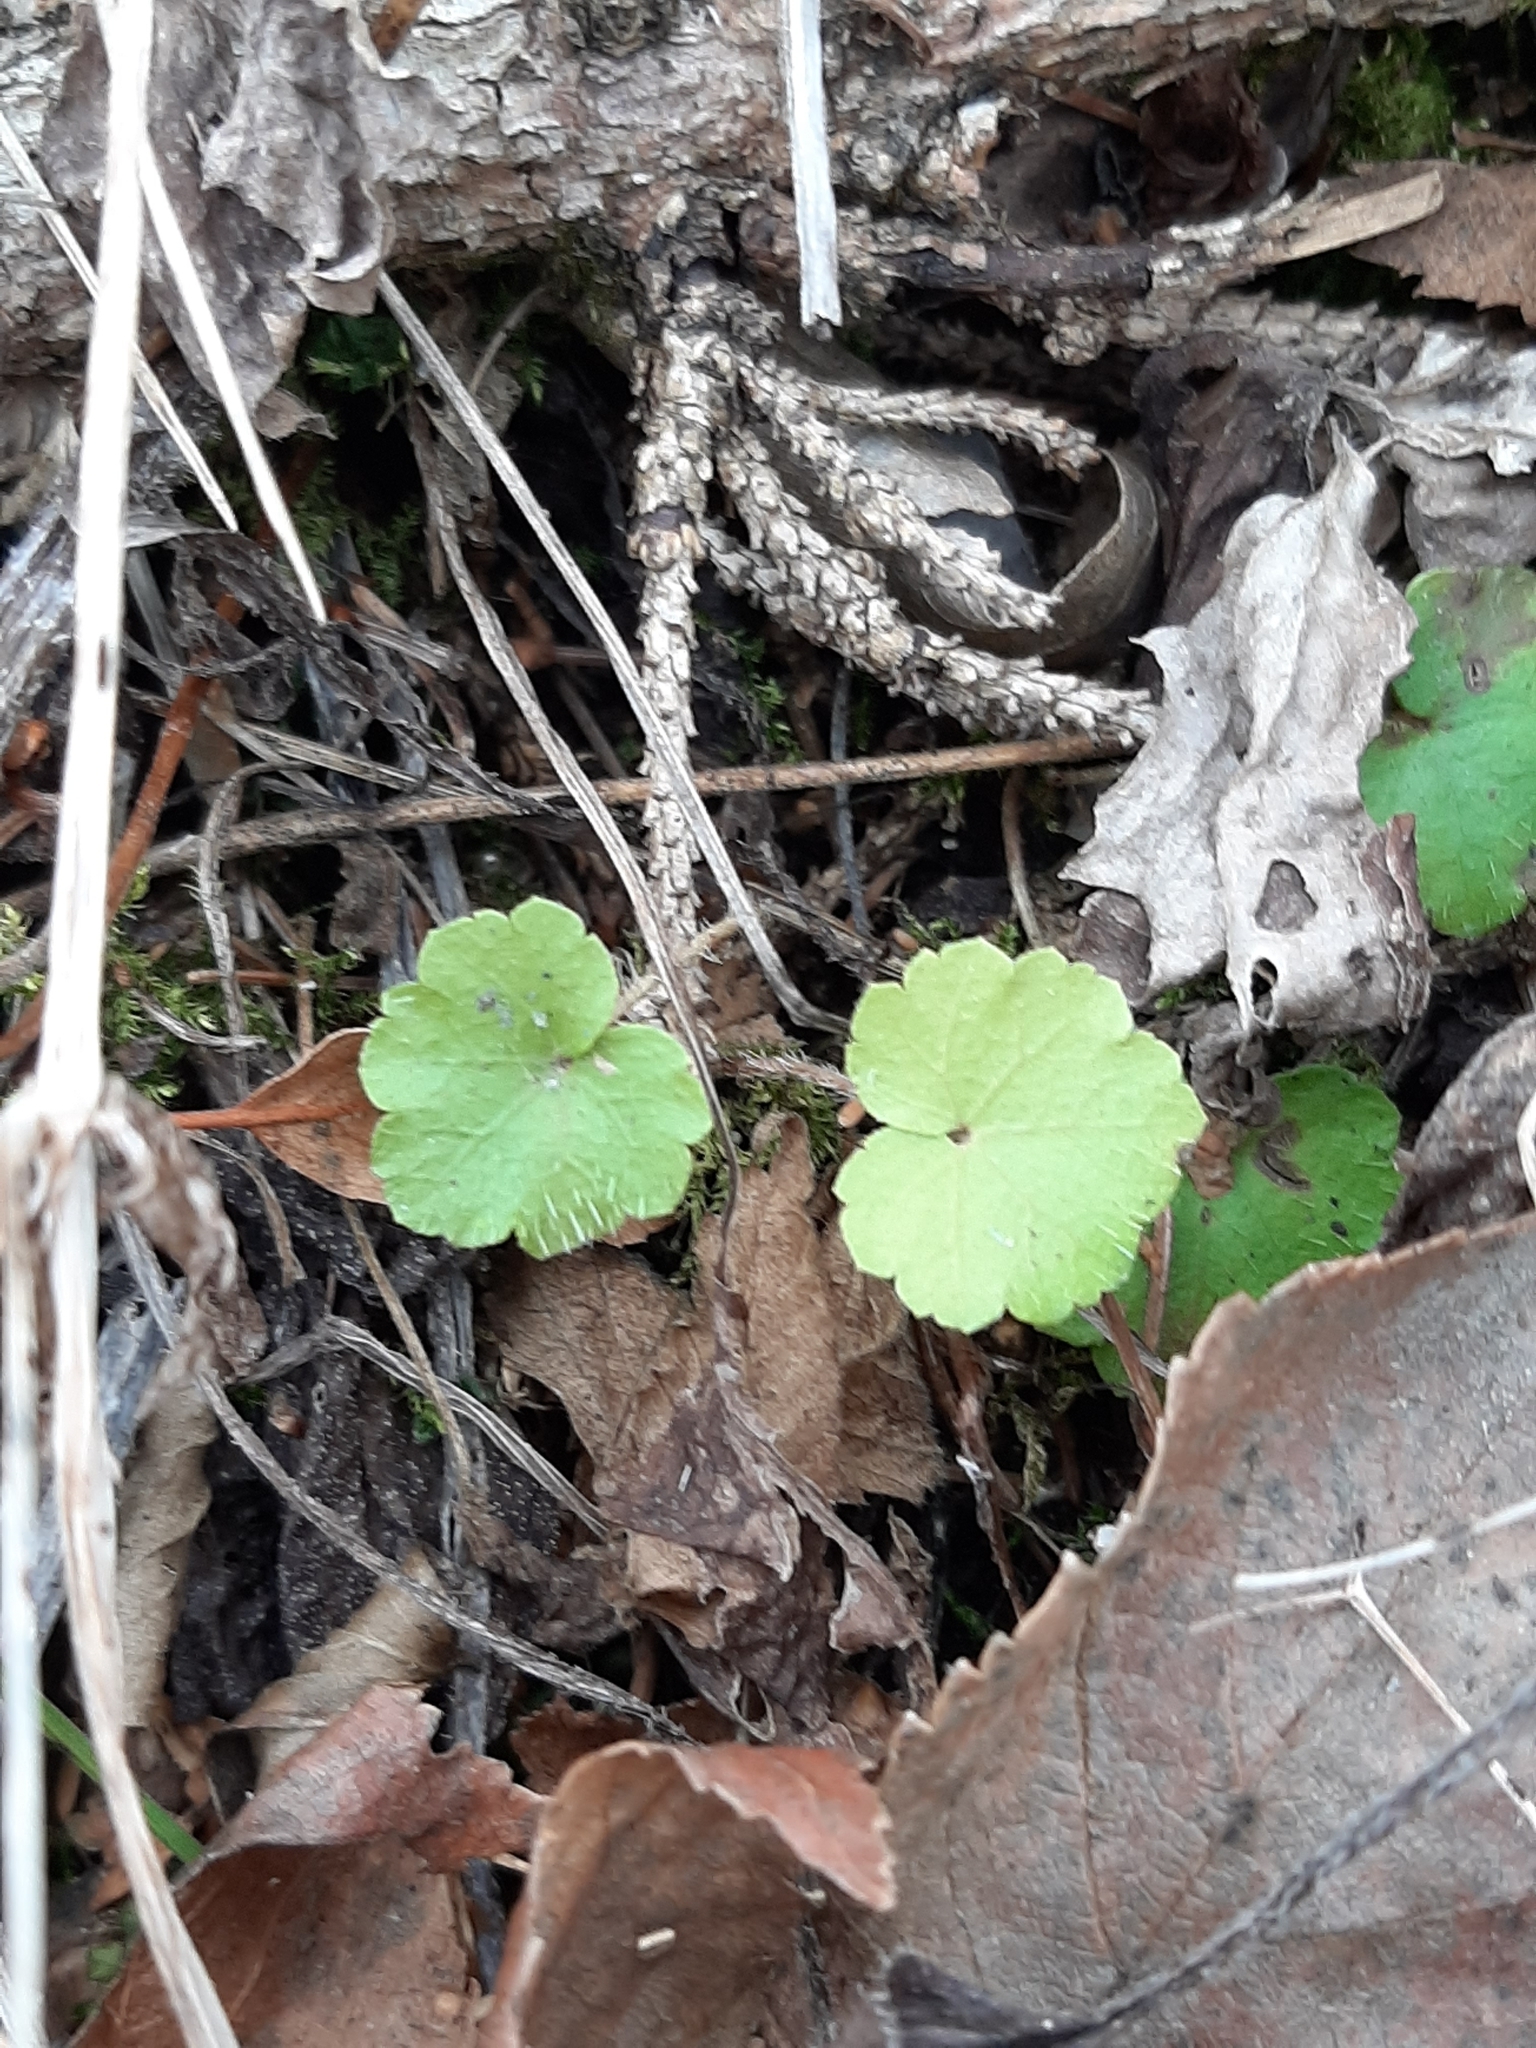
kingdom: Plantae
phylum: Tracheophyta
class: Magnoliopsida
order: Saxifragales
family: Saxifragaceae
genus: Mitella
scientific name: Mitella nuda
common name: Bare-stemmed bishop's-cap
